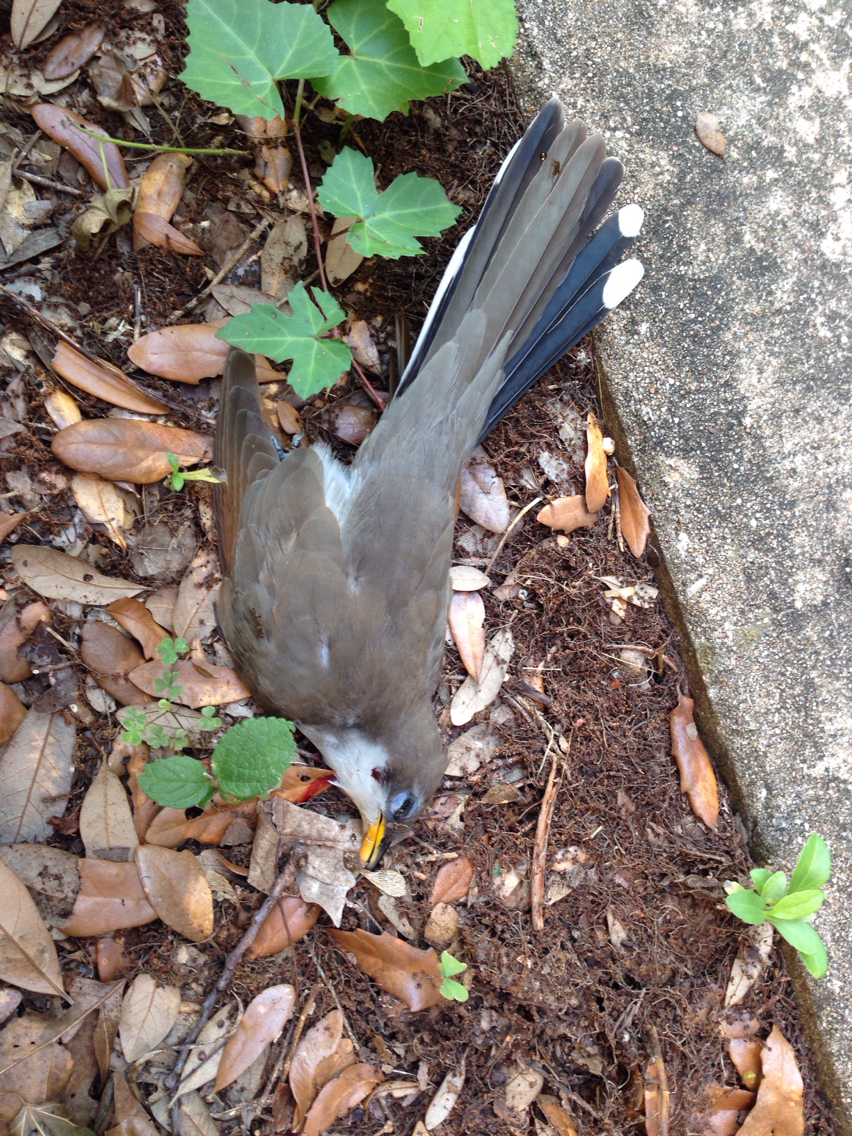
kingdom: Animalia
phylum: Chordata
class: Aves
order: Cuculiformes
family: Cuculidae
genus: Coccyzus
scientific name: Coccyzus americanus
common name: Yellow-billed cuckoo
